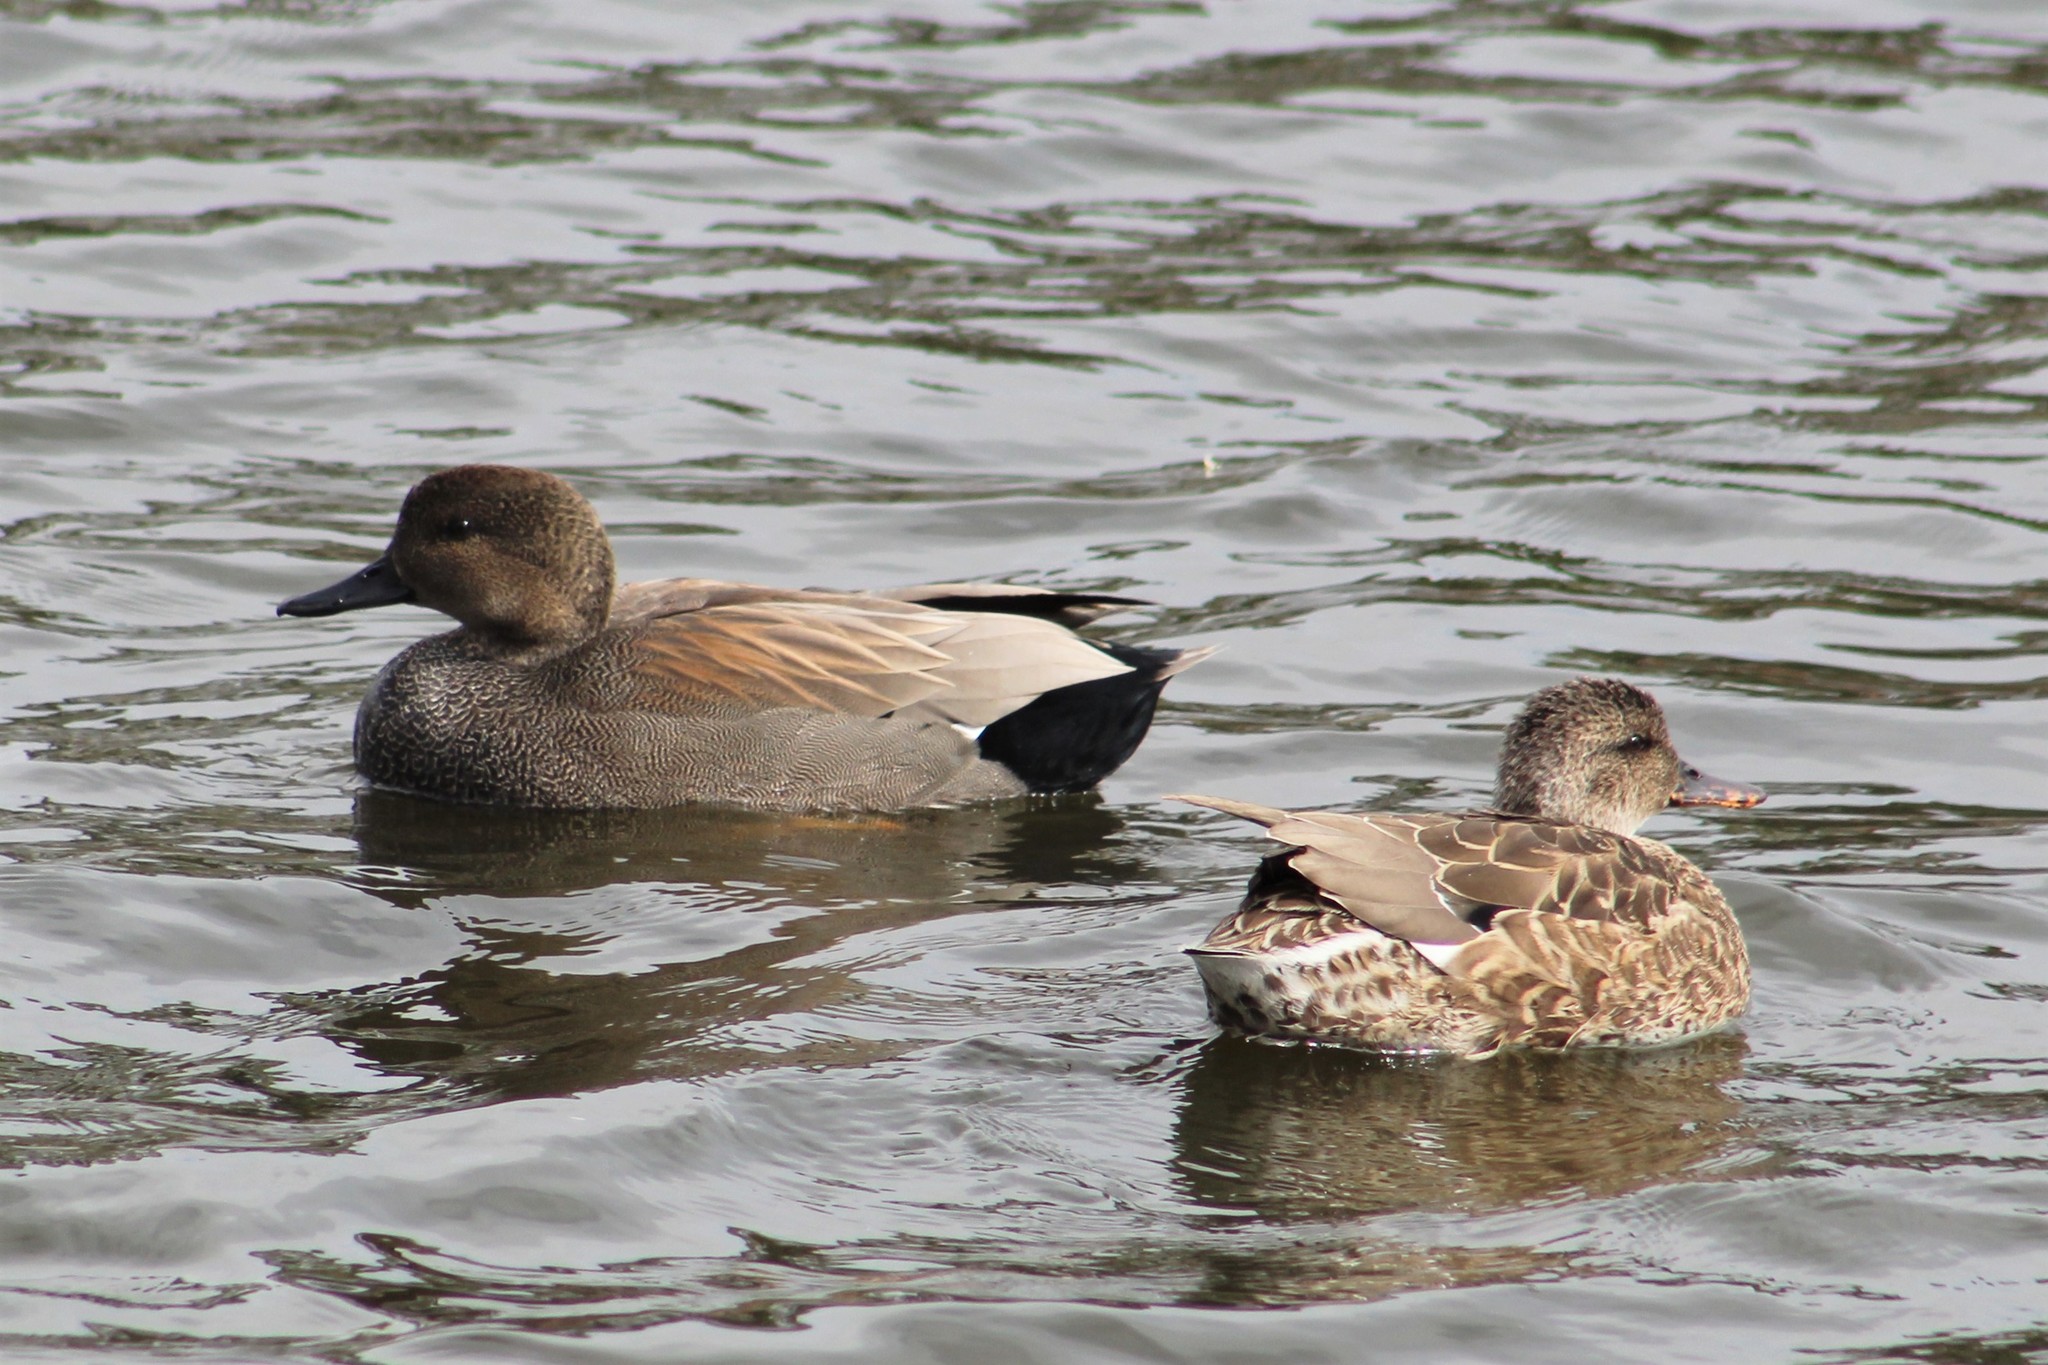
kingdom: Animalia
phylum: Chordata
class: Aves
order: Anseriformes
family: Anatidae
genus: Mareca
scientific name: Mareca strepera
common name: Gadwall
